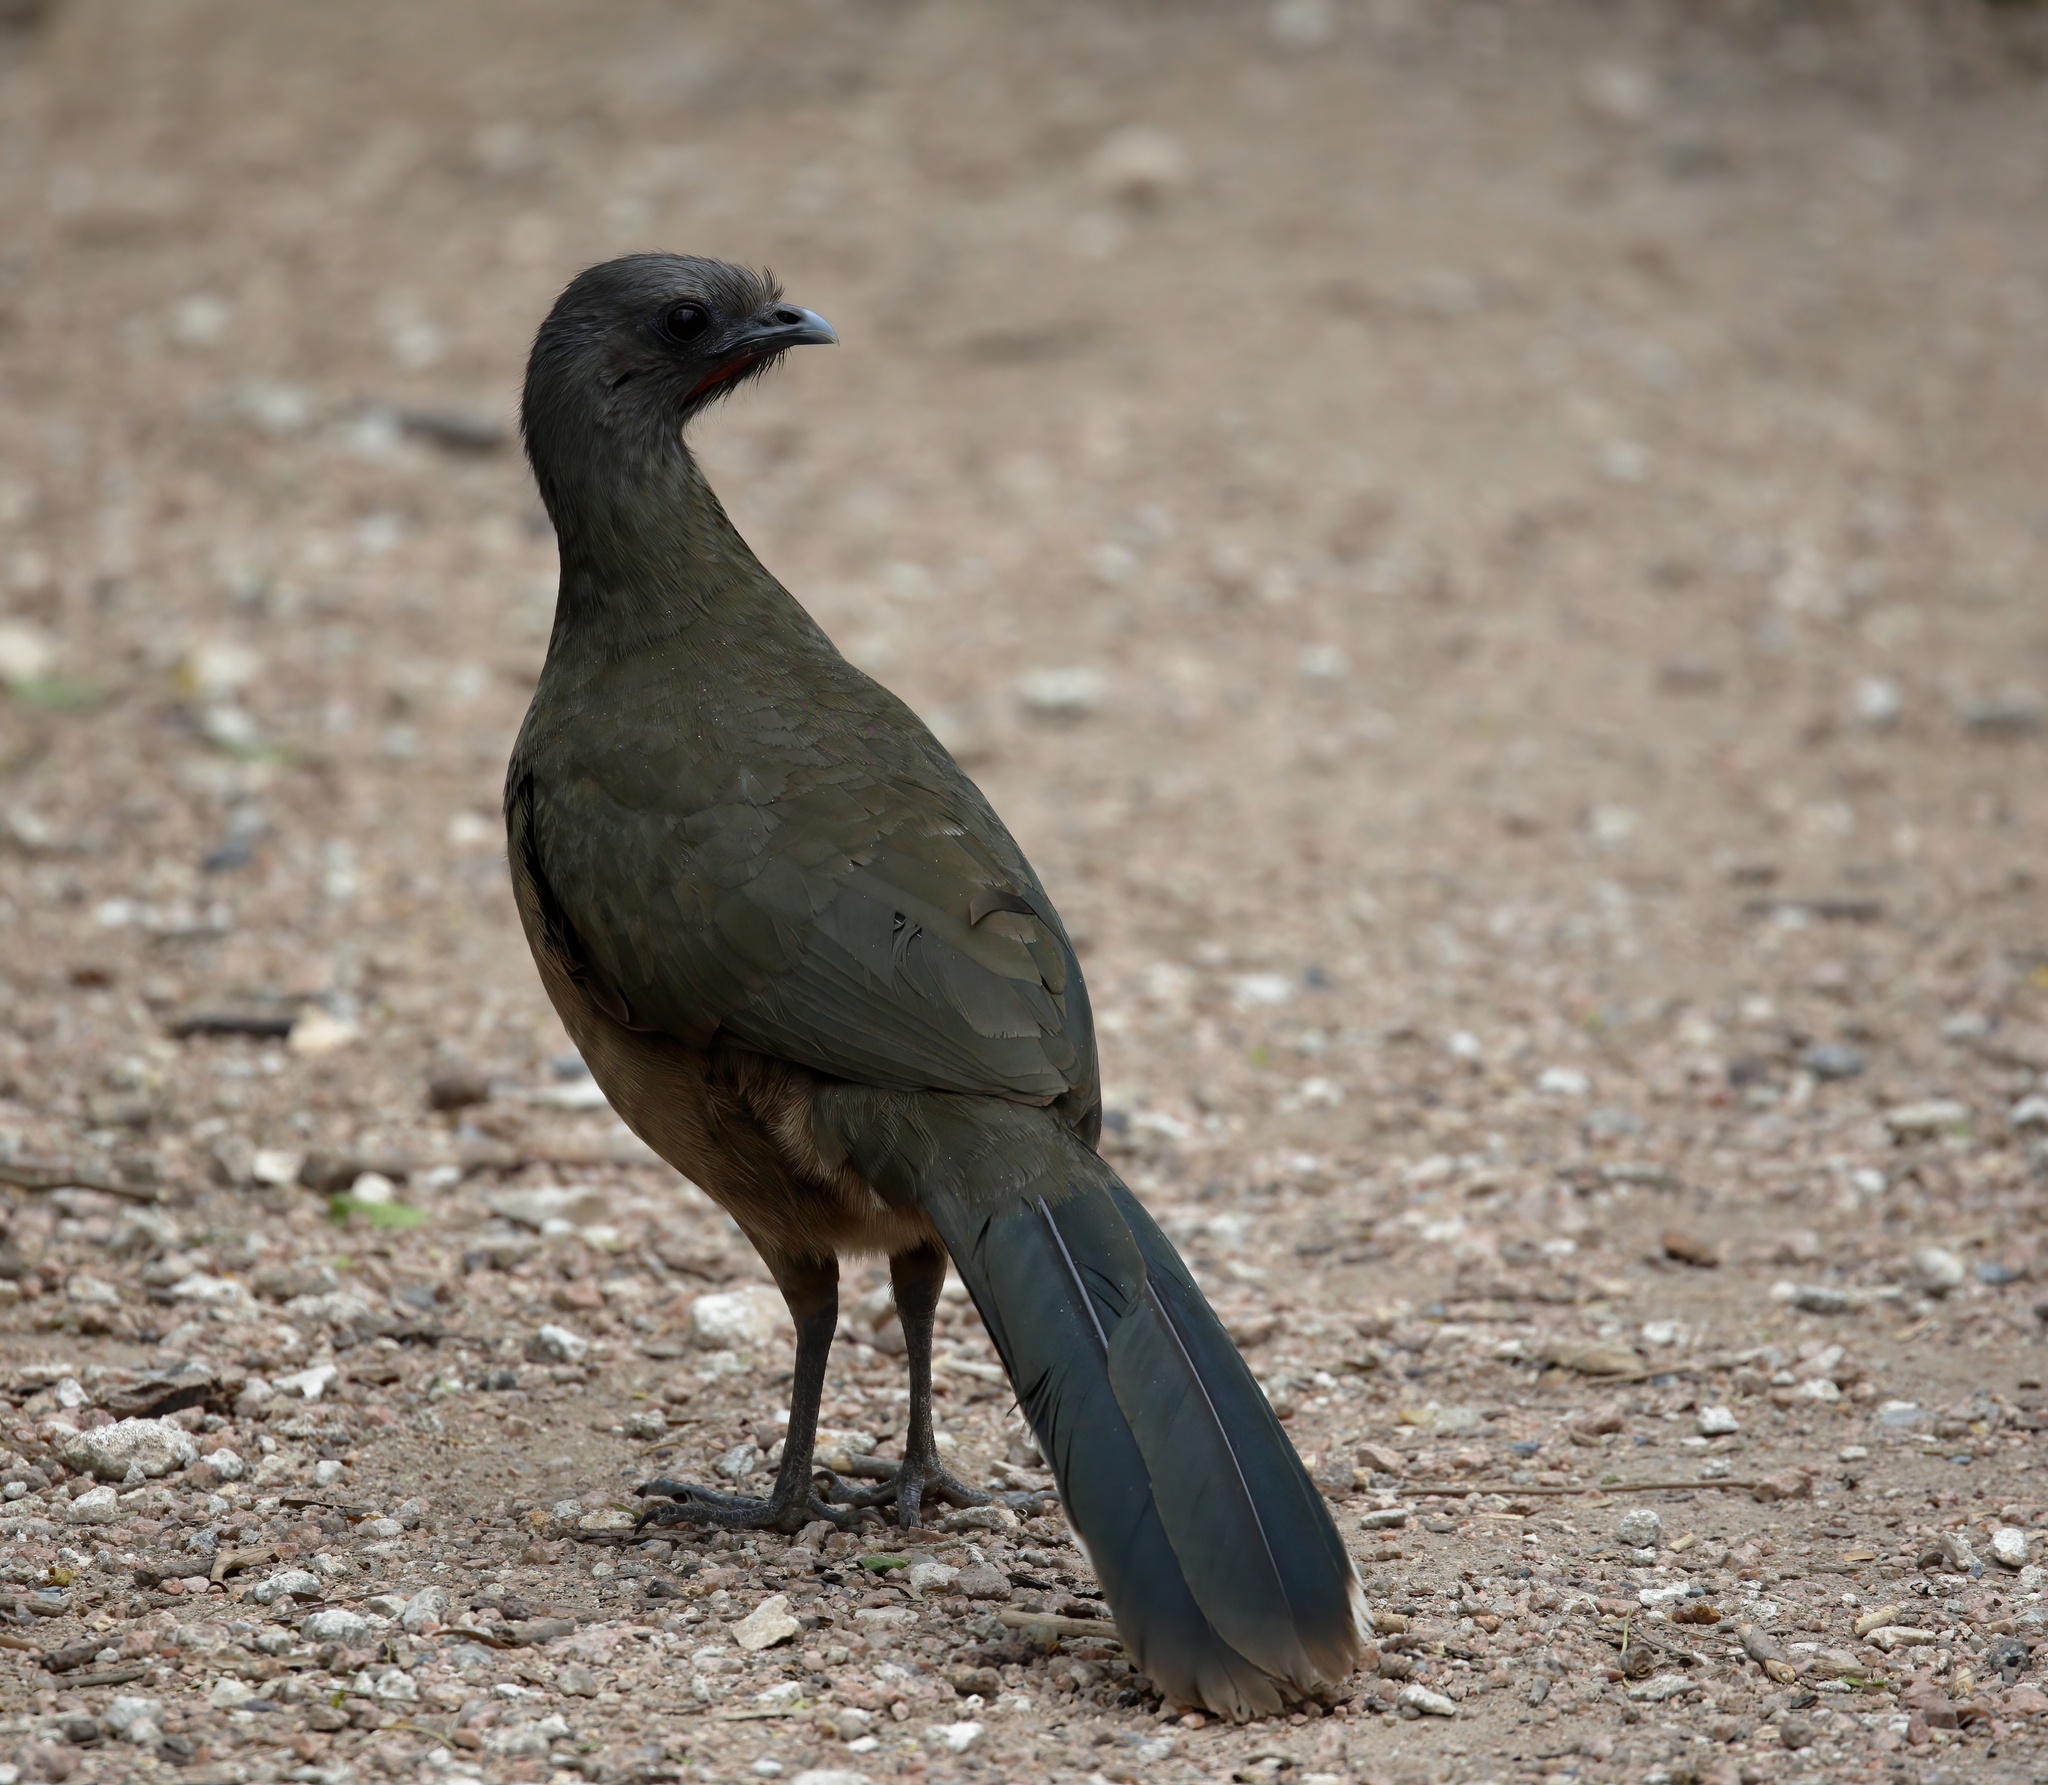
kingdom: Animalia
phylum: Chordata
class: Aves
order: Galliformes
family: Cracidae
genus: Ortalis
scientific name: Ortalis vetula
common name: Plain chachalaca
